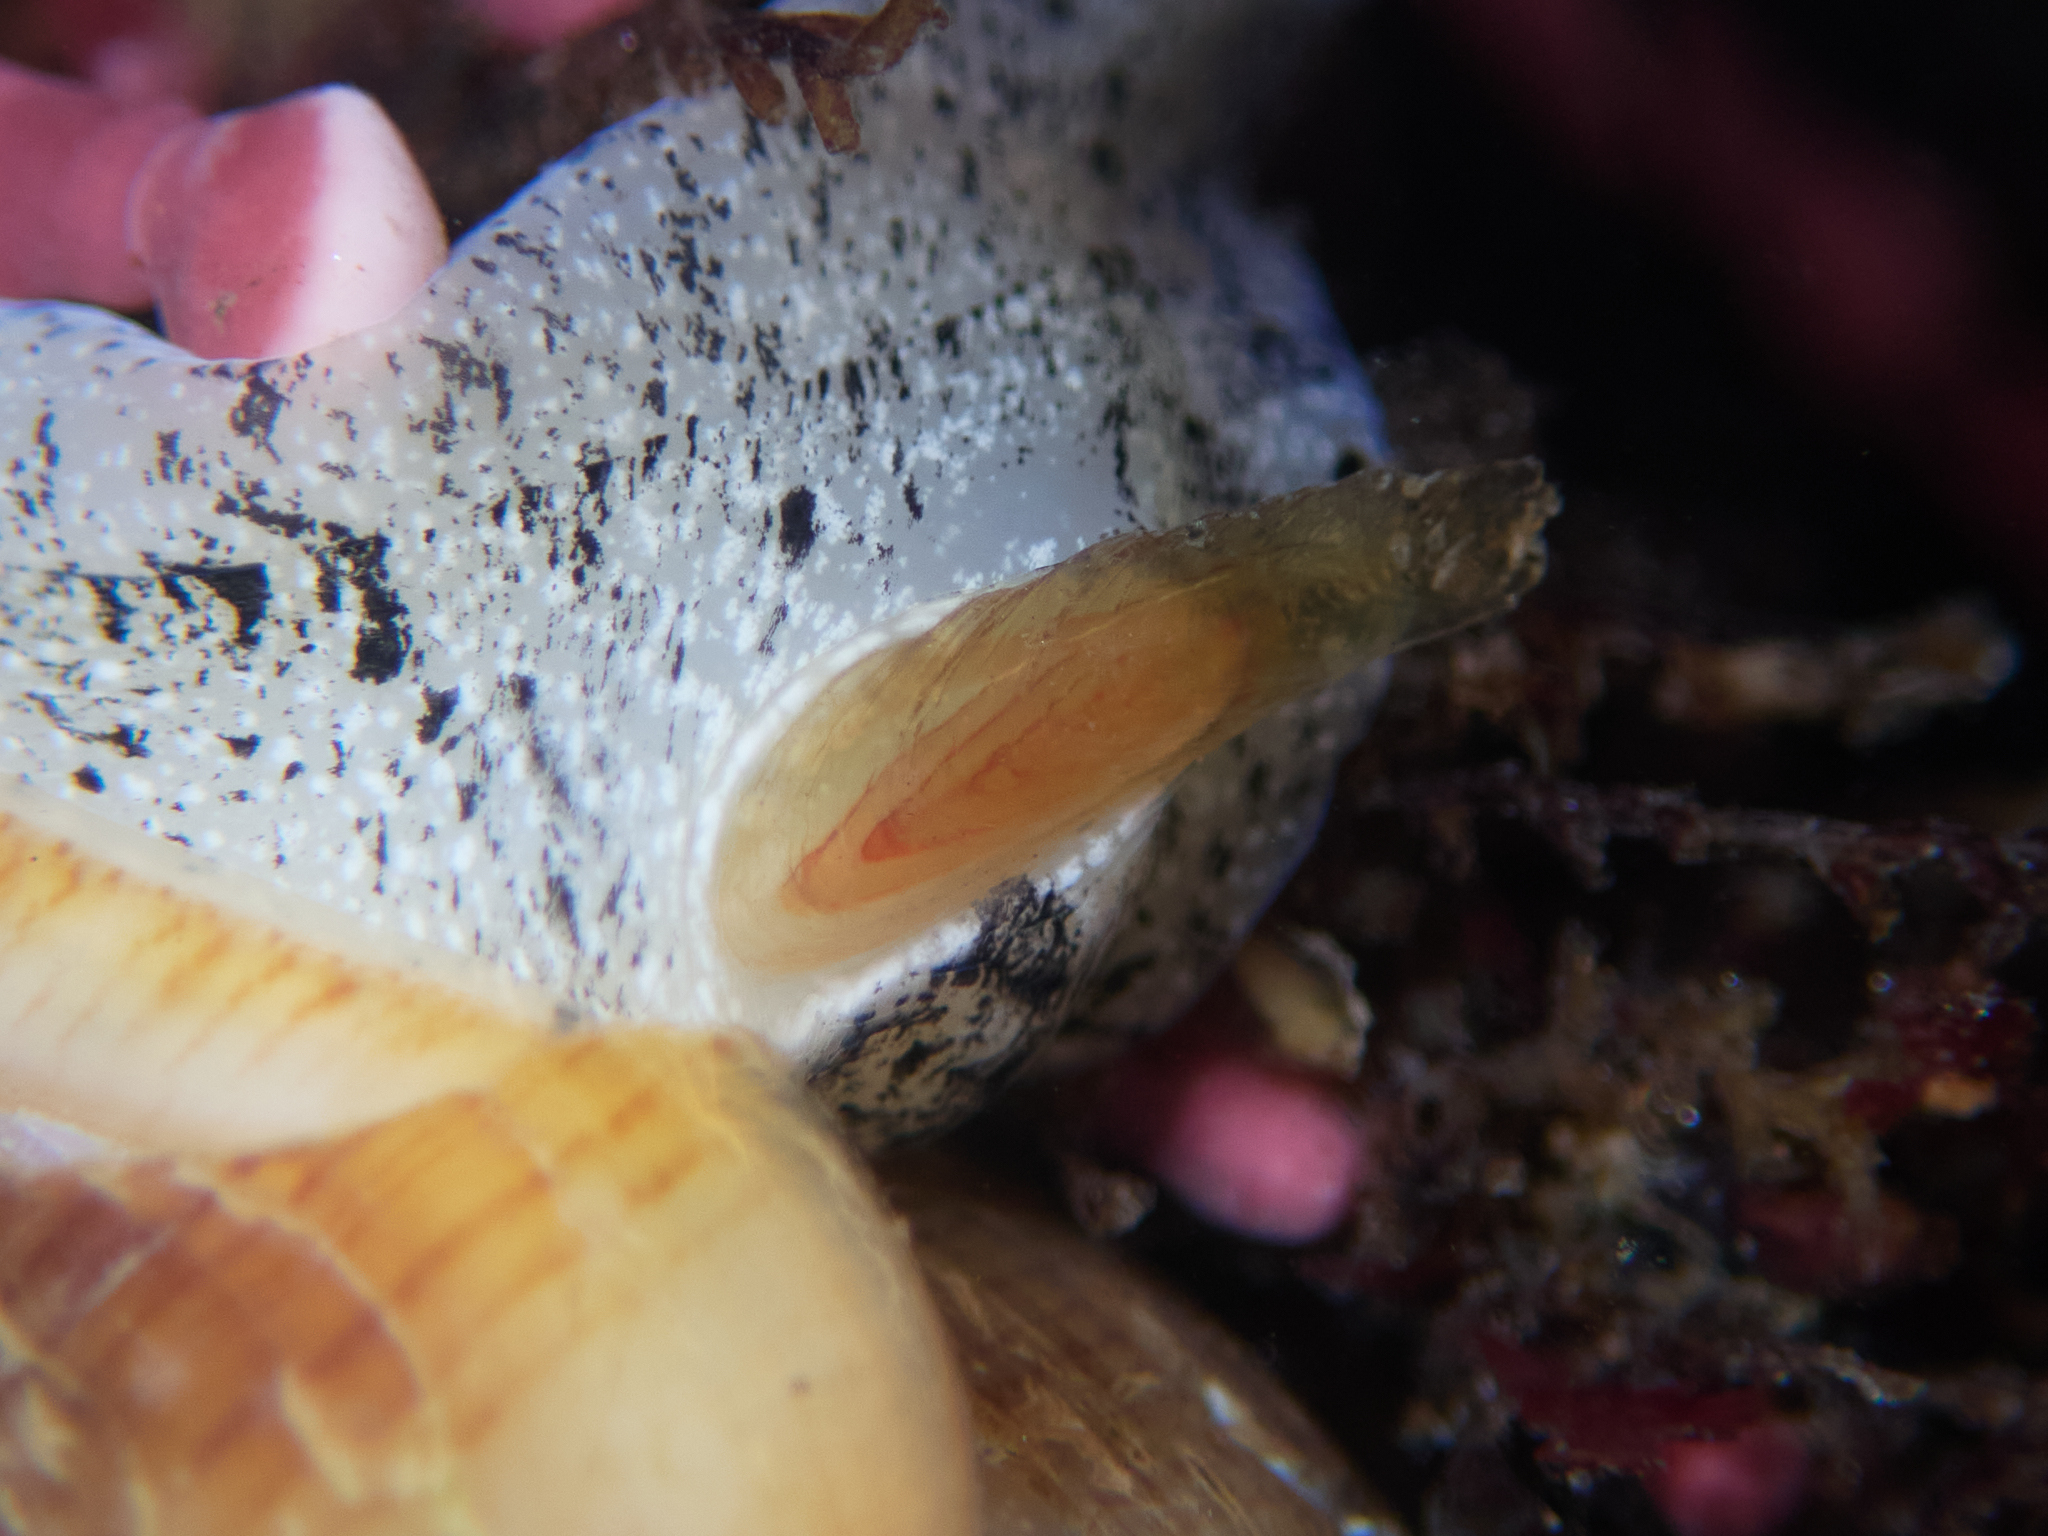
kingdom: Animalia
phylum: Mollusca
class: Gastropoda
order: Neogastropoda
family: Conidae
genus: Californiconus
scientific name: Californiconus californicus
